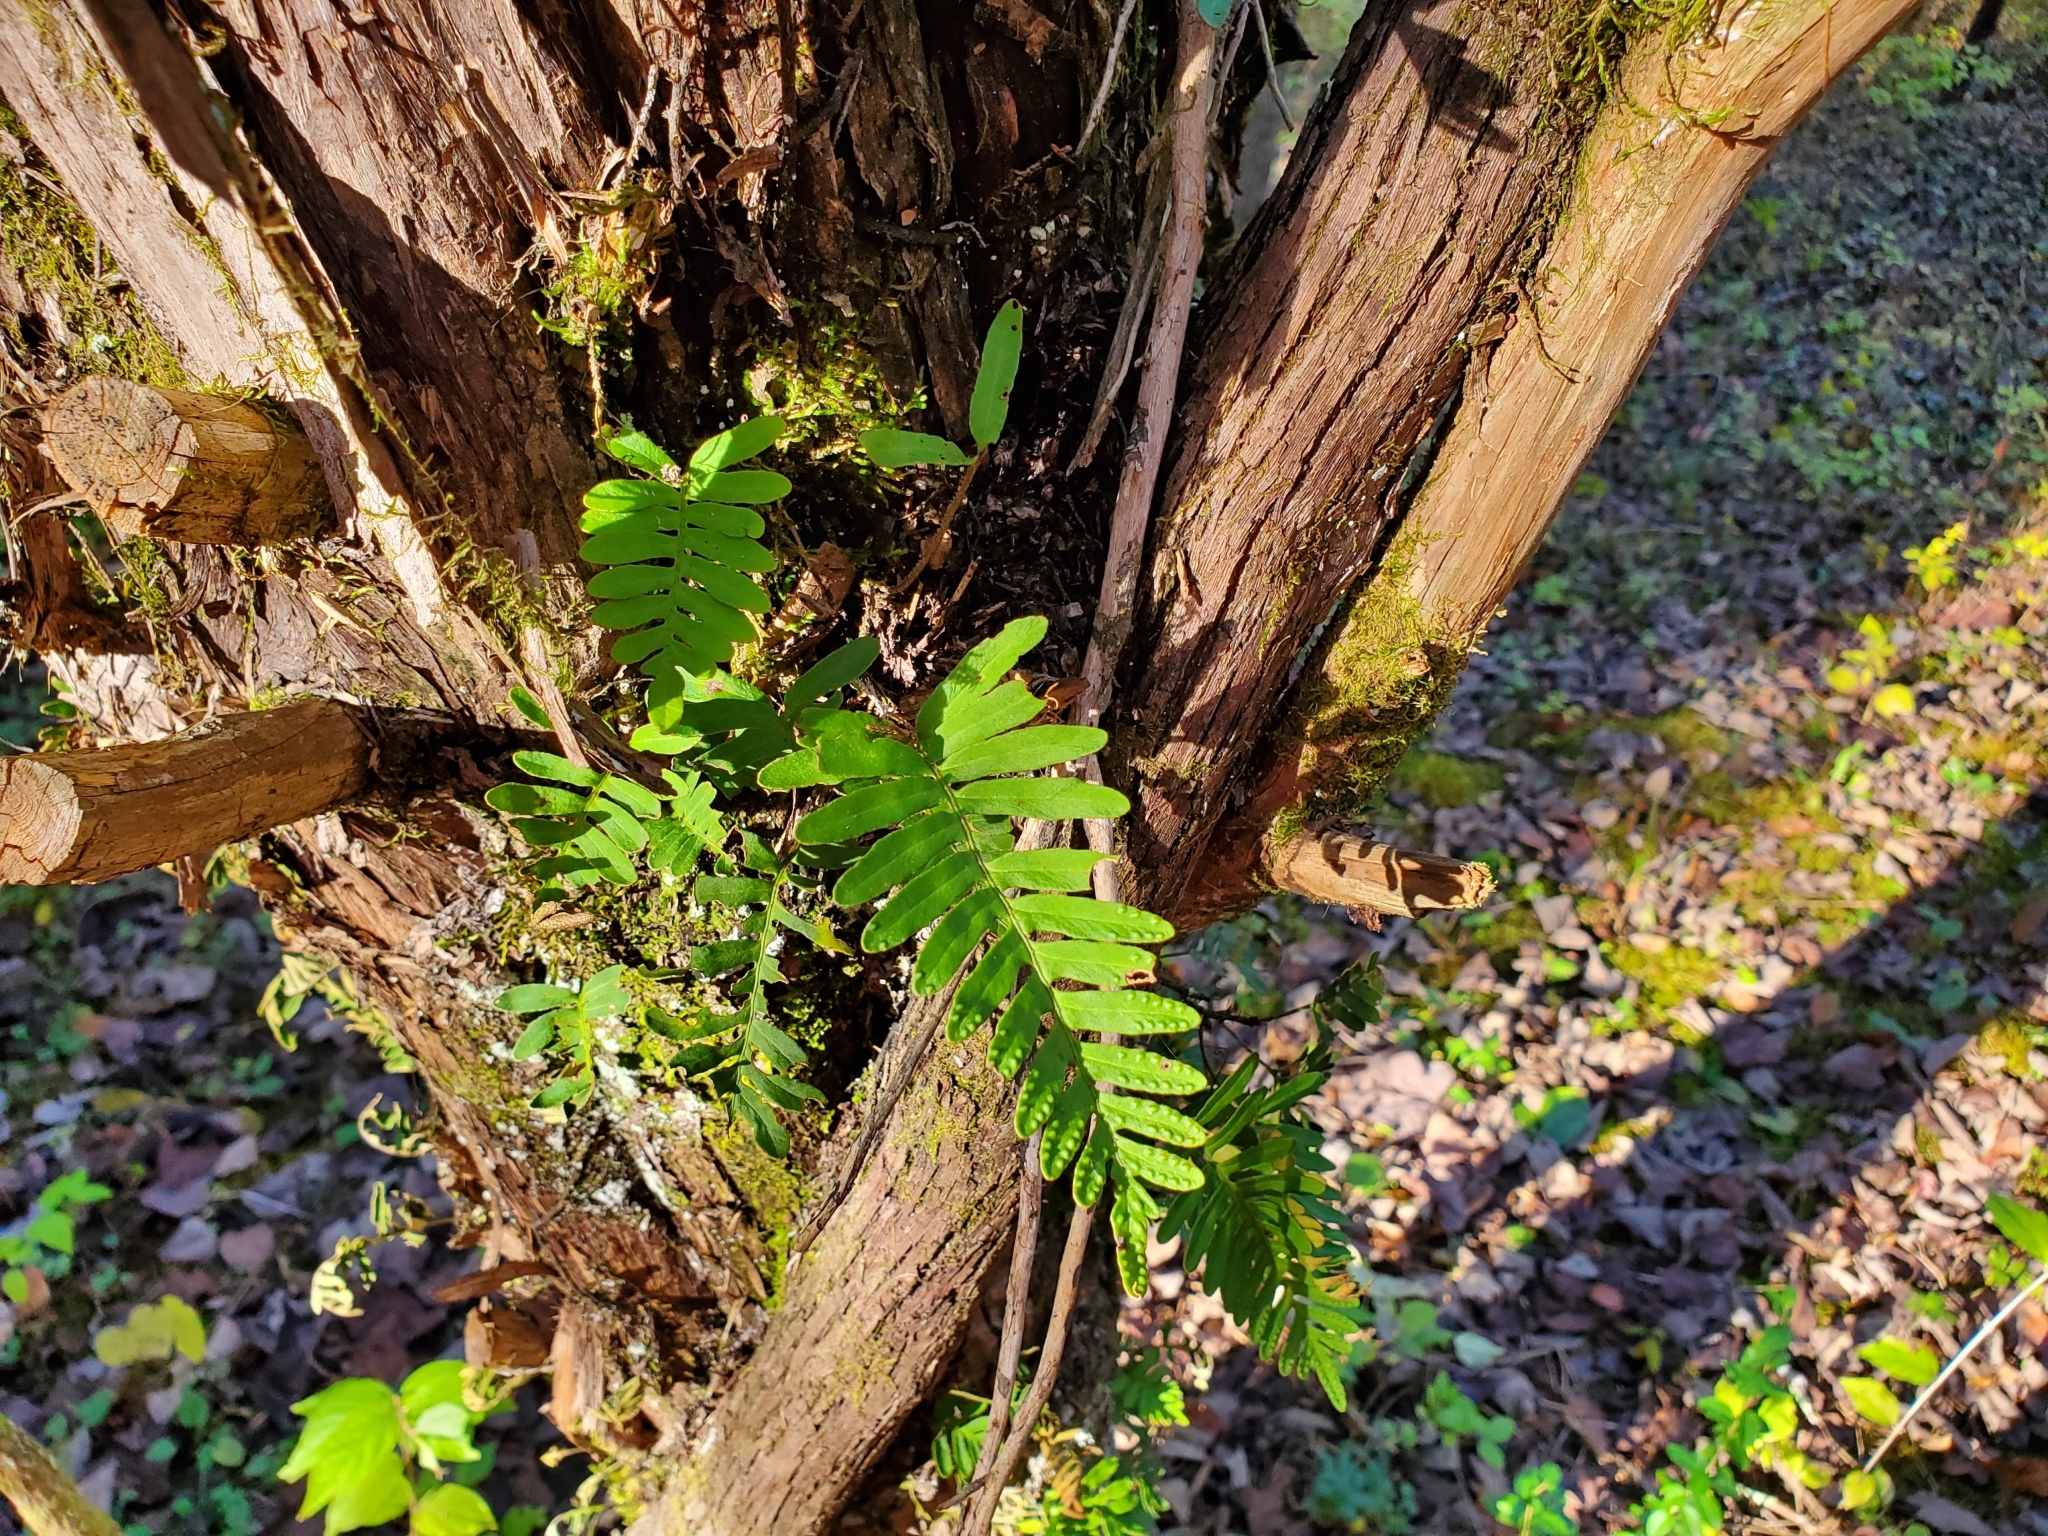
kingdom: Plantae
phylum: Tracheophyta
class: Polypodiopsida
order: Polypodiales
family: Polypodiaceae
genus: Pleopeltis
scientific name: Pleopeltis michauxiana
